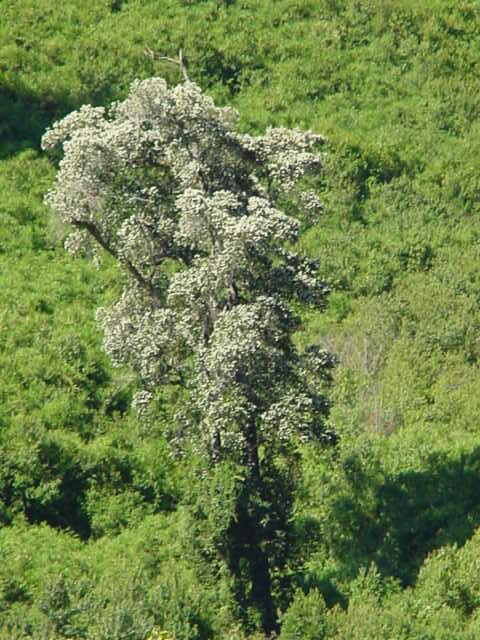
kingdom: Plantae
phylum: Tracheophyta
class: Magnoliopsida
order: Oxalidales
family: Cunoniaceae
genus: Eucryphia
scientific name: Eucryphia cordifolia
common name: Ulmo
